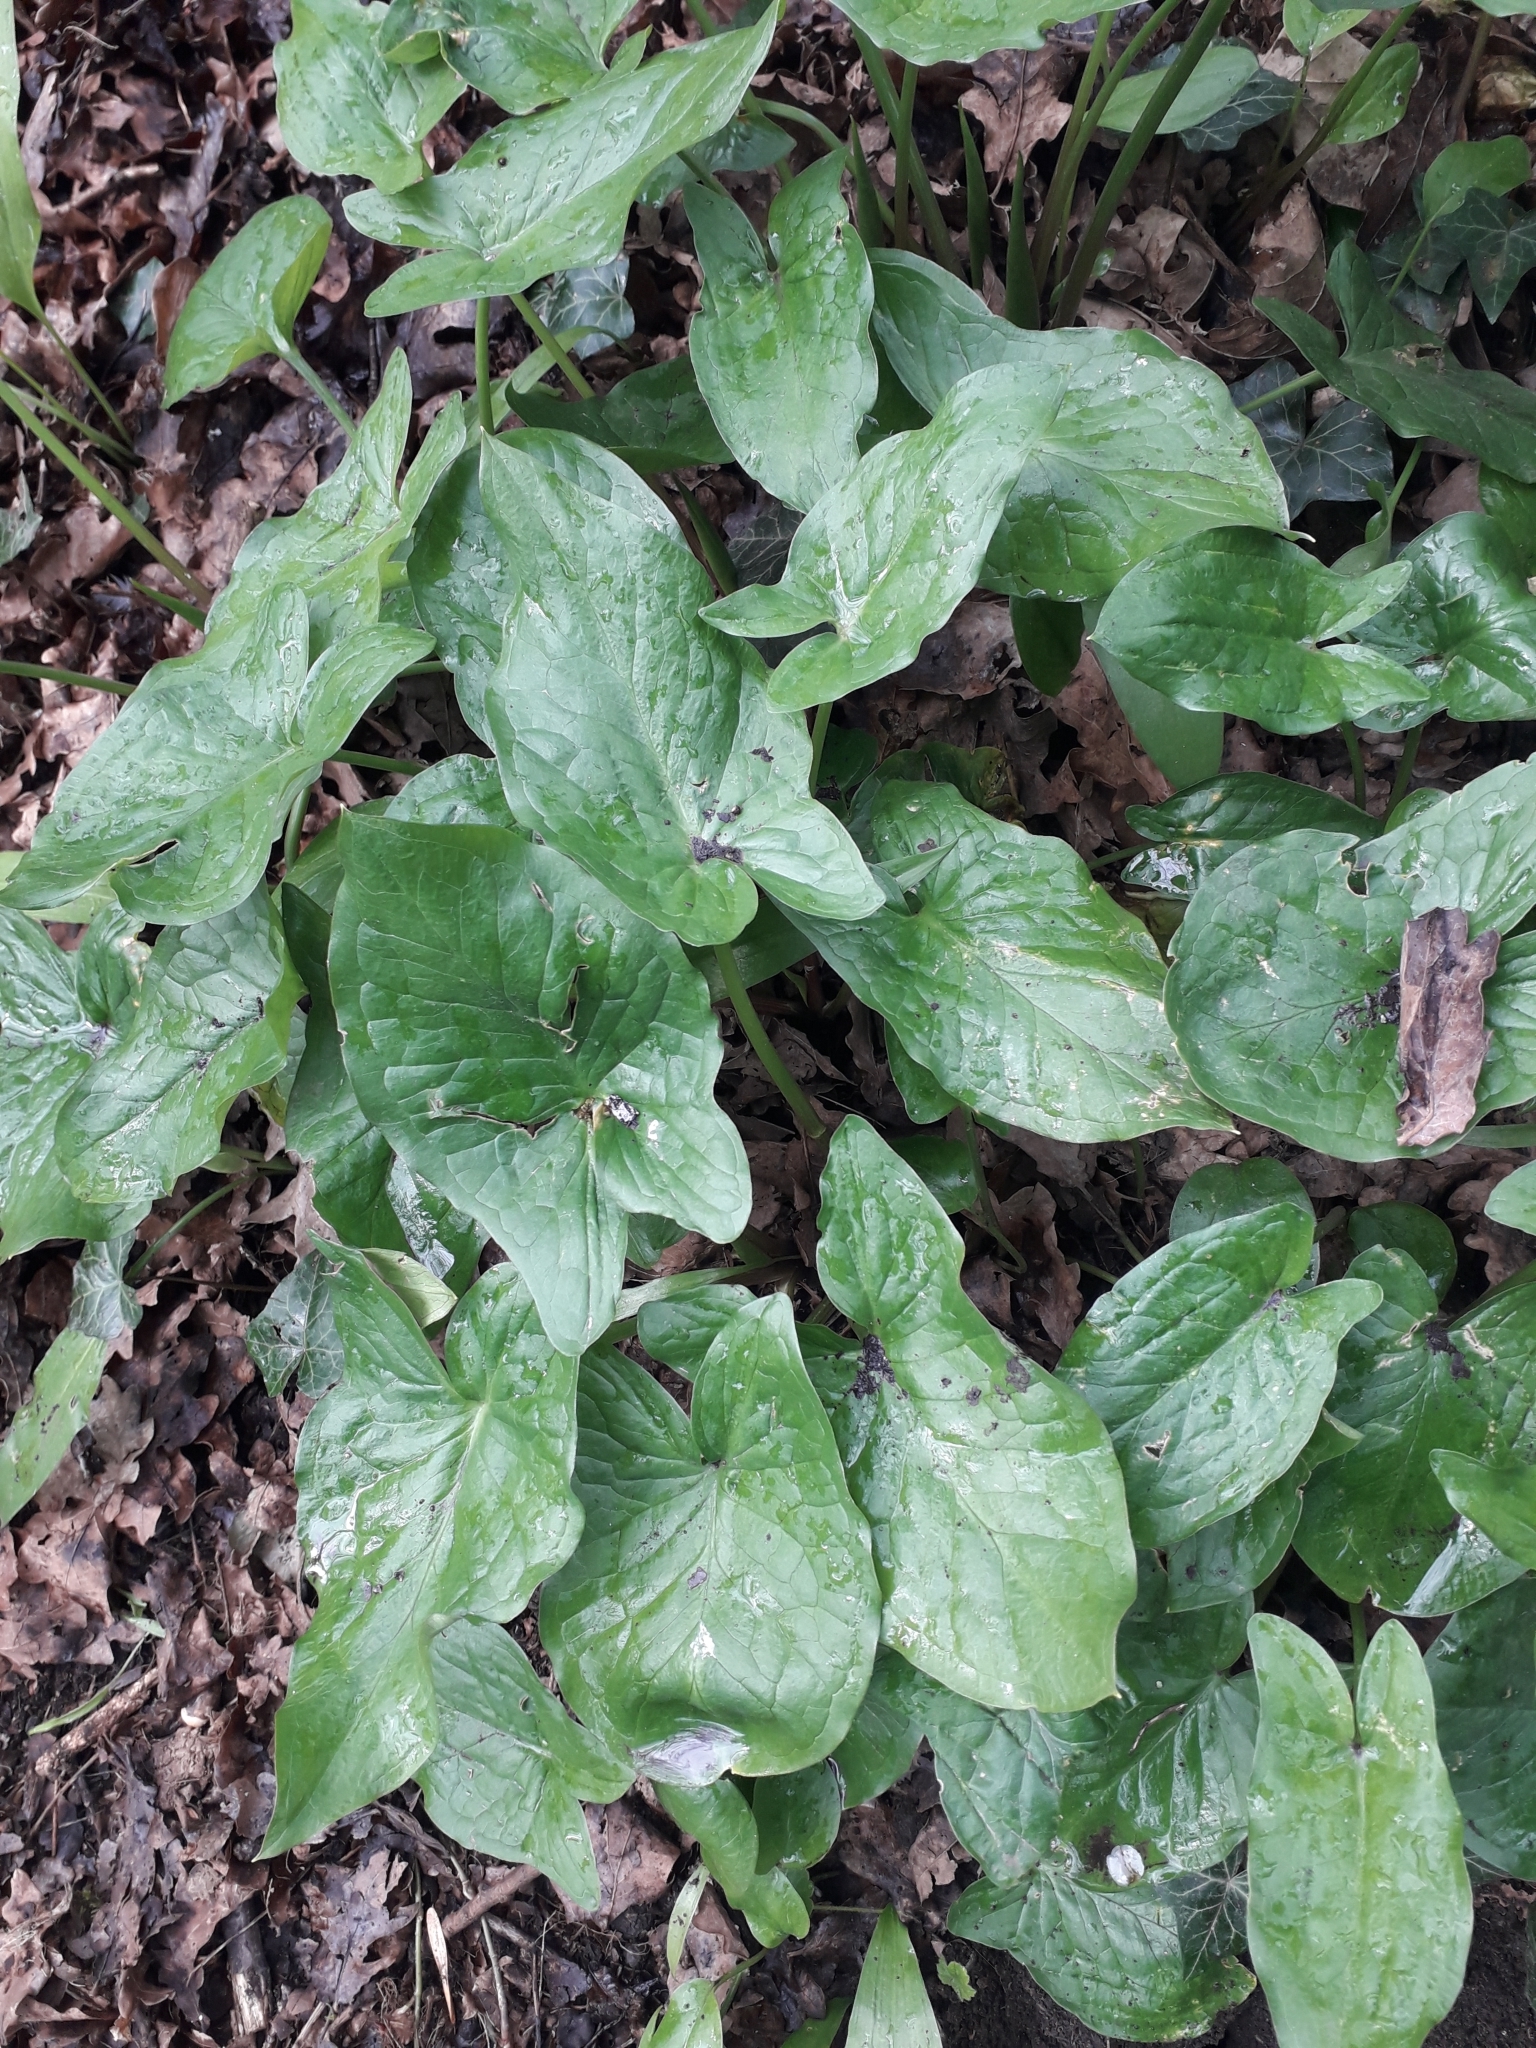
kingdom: Plantae
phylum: Tracheophyta
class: Liliopsida
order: Alismatales
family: Araceae
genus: Arum
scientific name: Arum maculatum
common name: Lords-and-ladies
